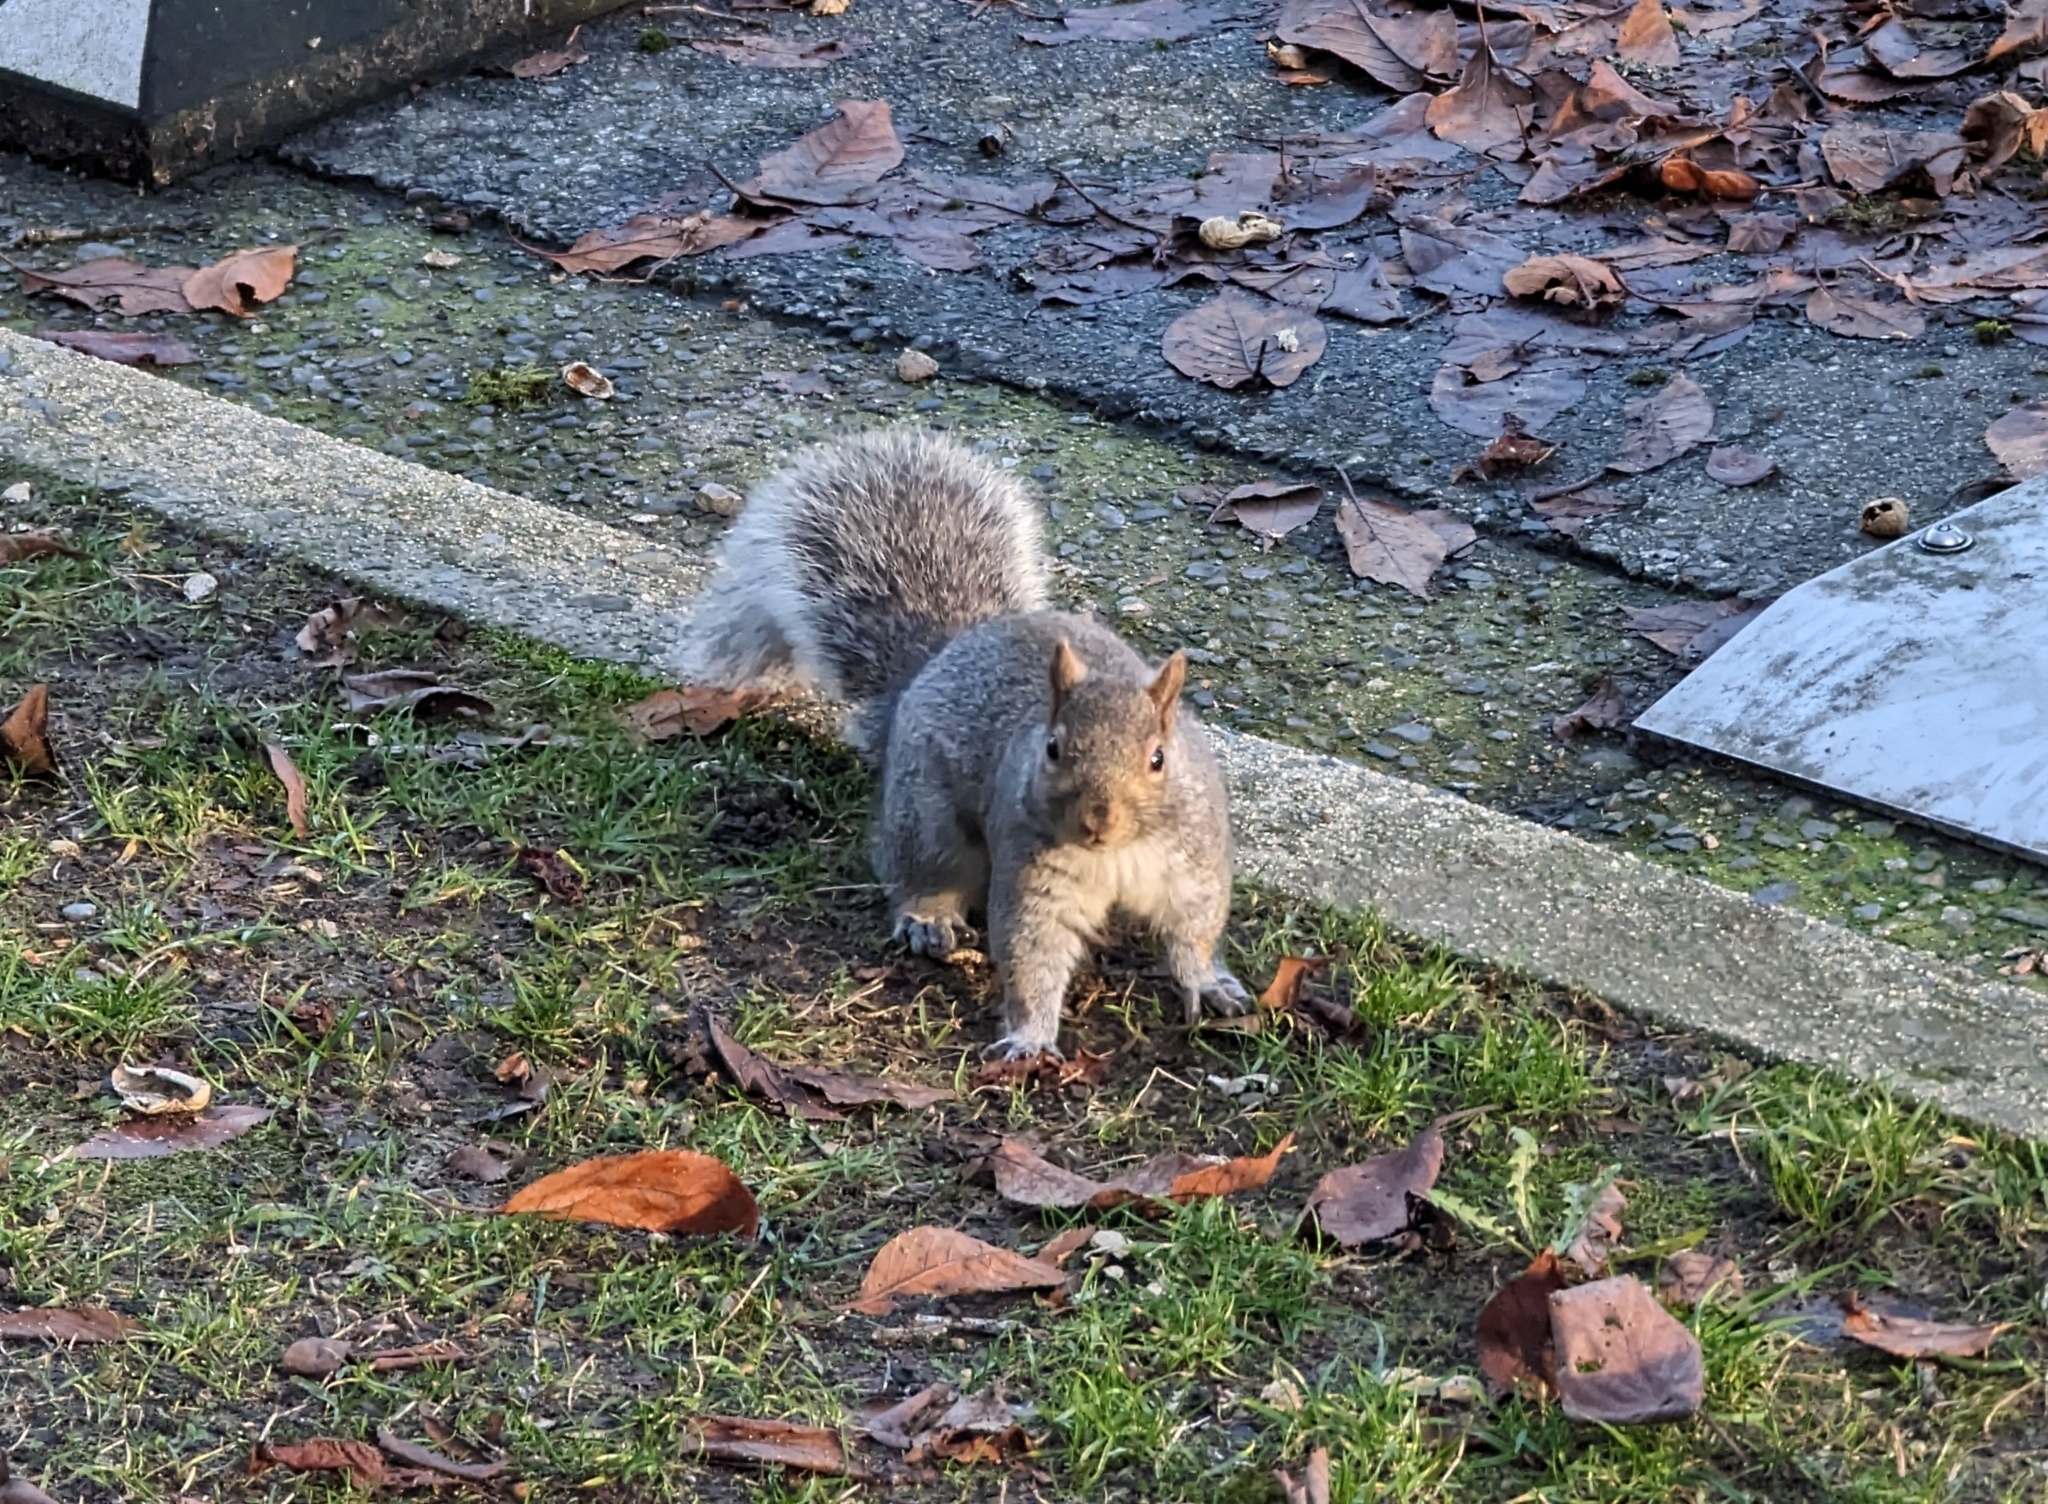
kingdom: Animalia
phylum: Chordata
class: Mammalia
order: Rodentia
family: Sciuridae
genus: Sciurus
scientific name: Sciurus carolinensis
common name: Eastern gray squirrel
